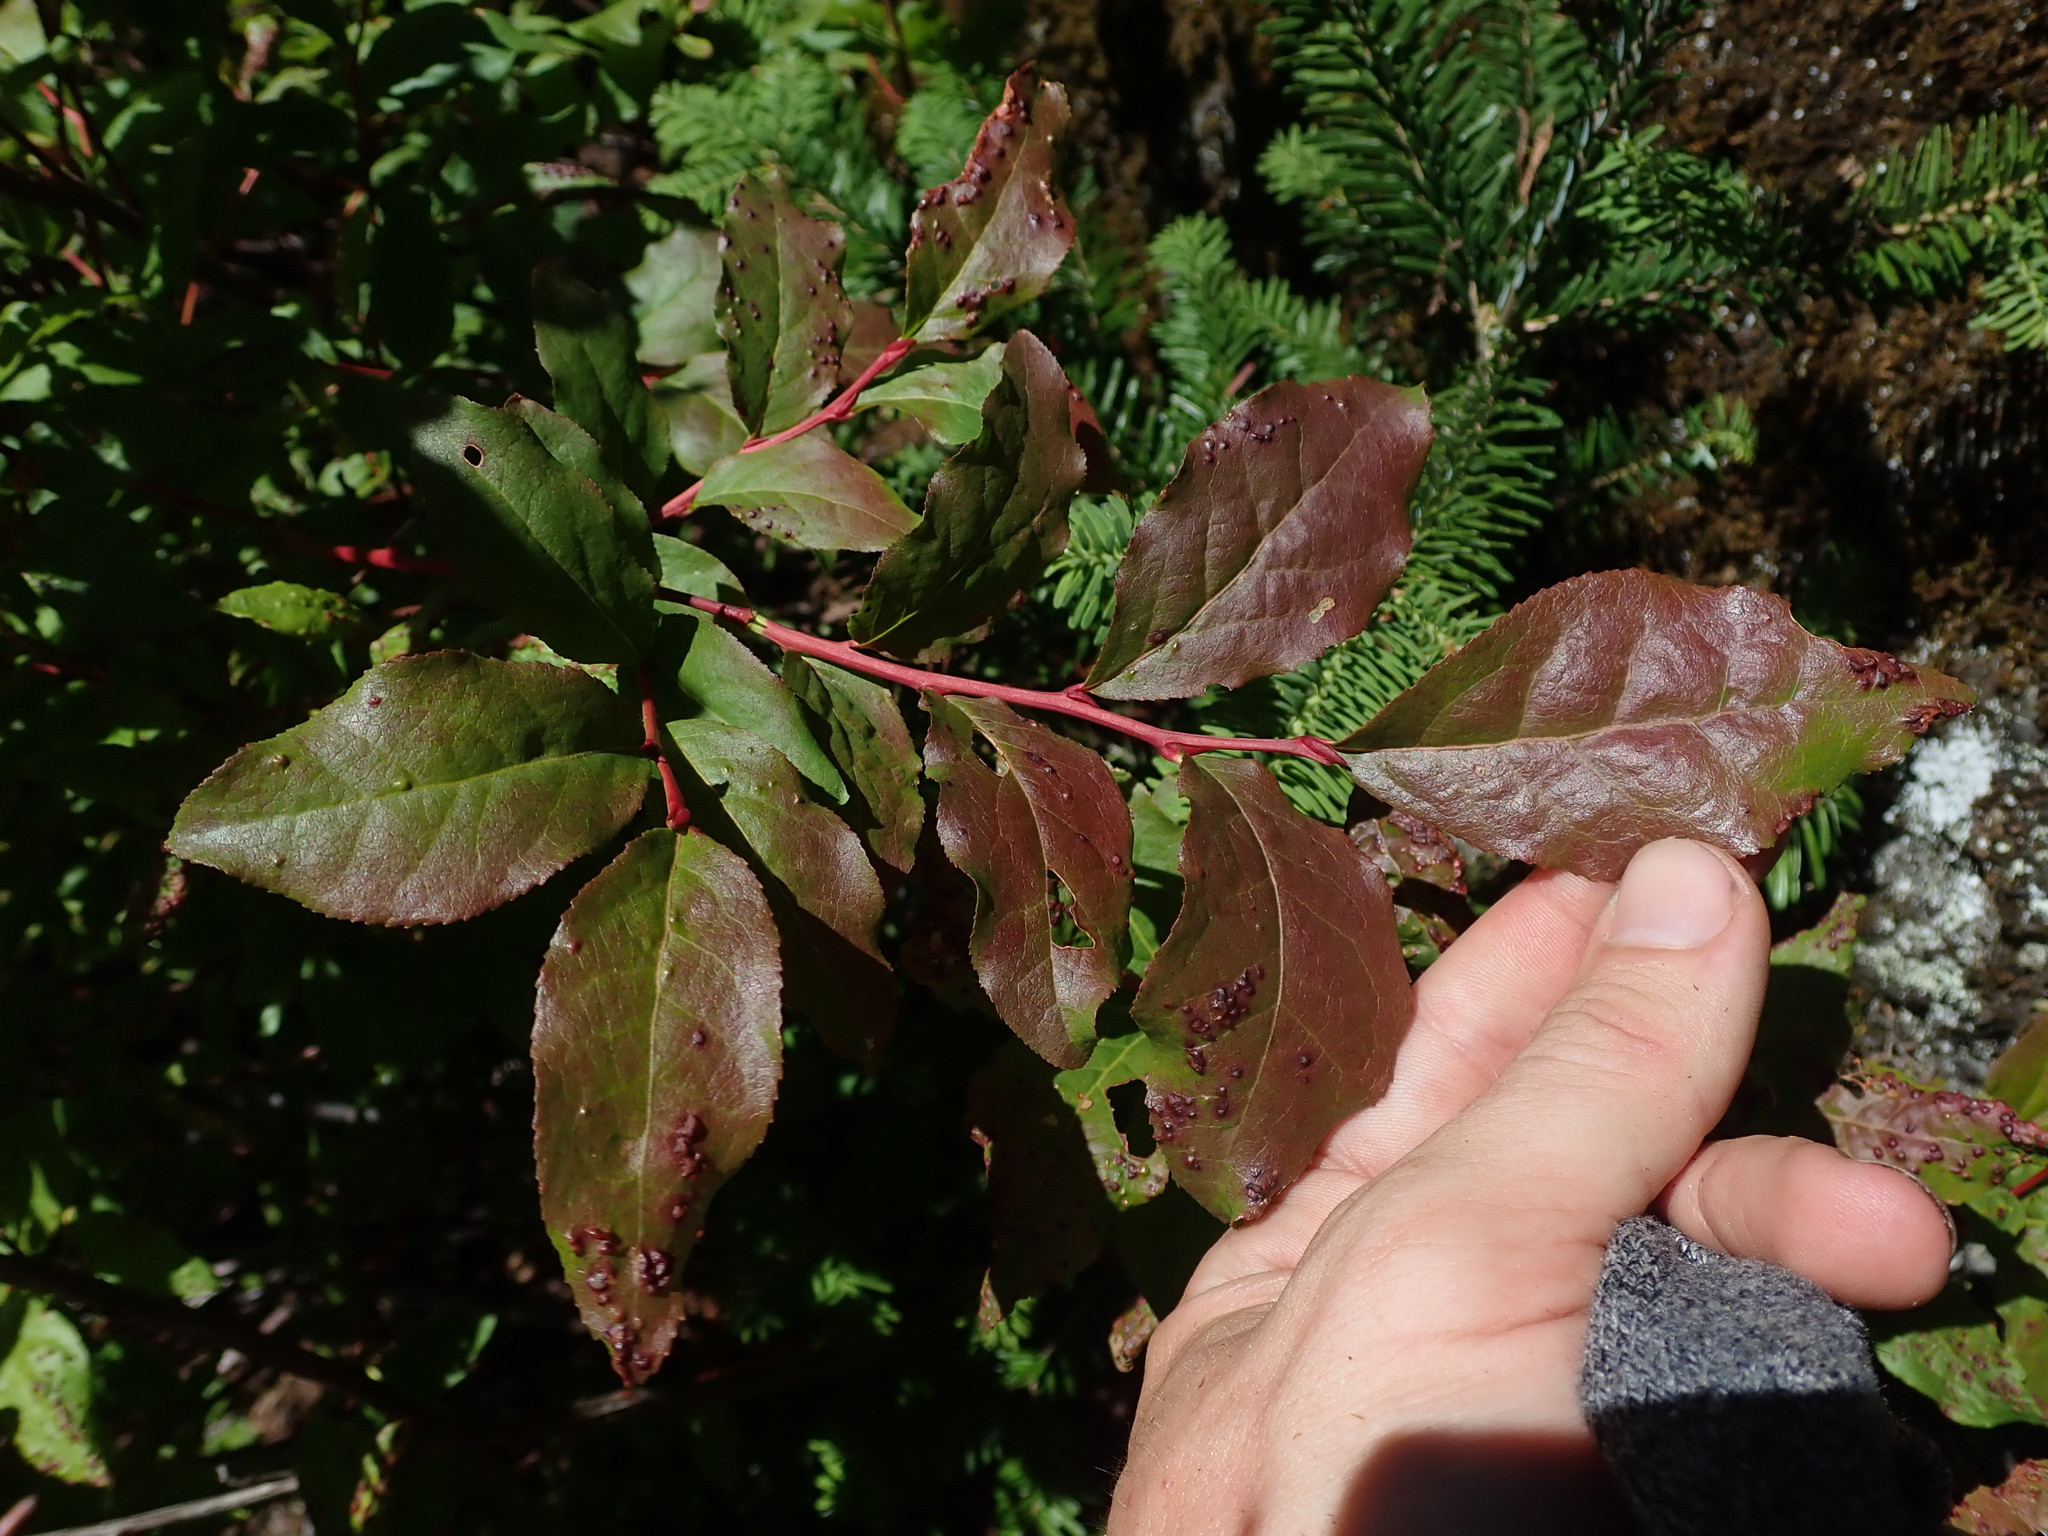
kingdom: Plantae
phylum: Tracheophyta
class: Magnoliopsida
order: Ericales
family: Ericaceae
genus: Vaccinium
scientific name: Vaccinium membranaceum
